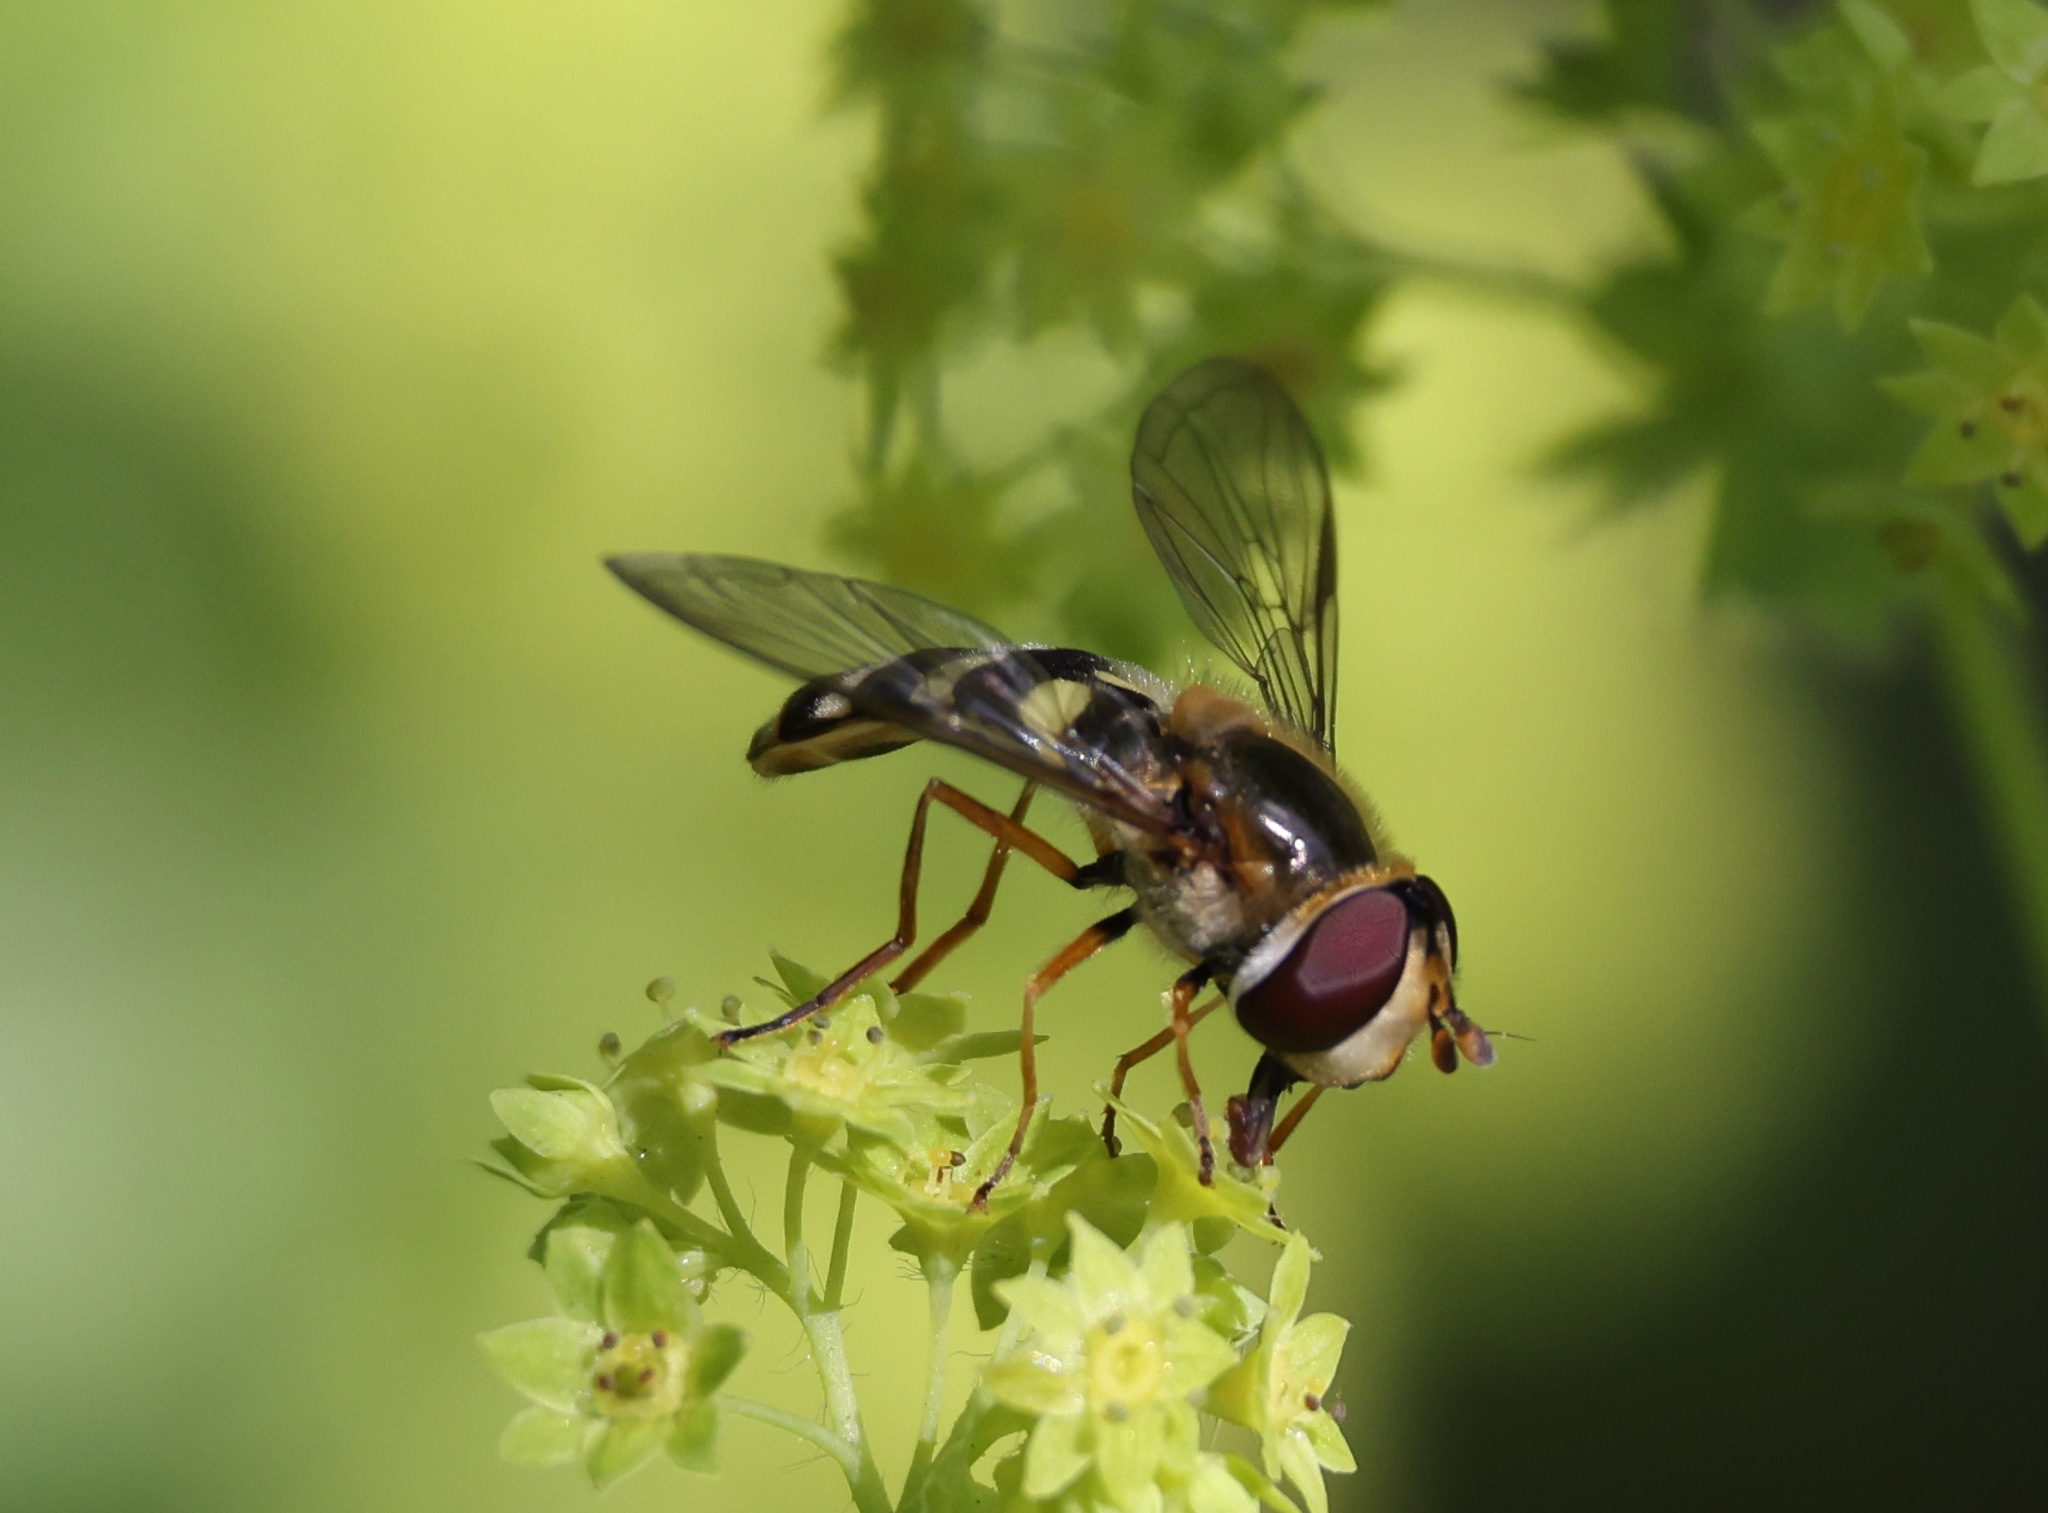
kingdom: Animalia
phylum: Arthropoda
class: Insecta
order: Diptera
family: Syrphidae
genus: Eupeodes
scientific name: Eupeodes luniger
